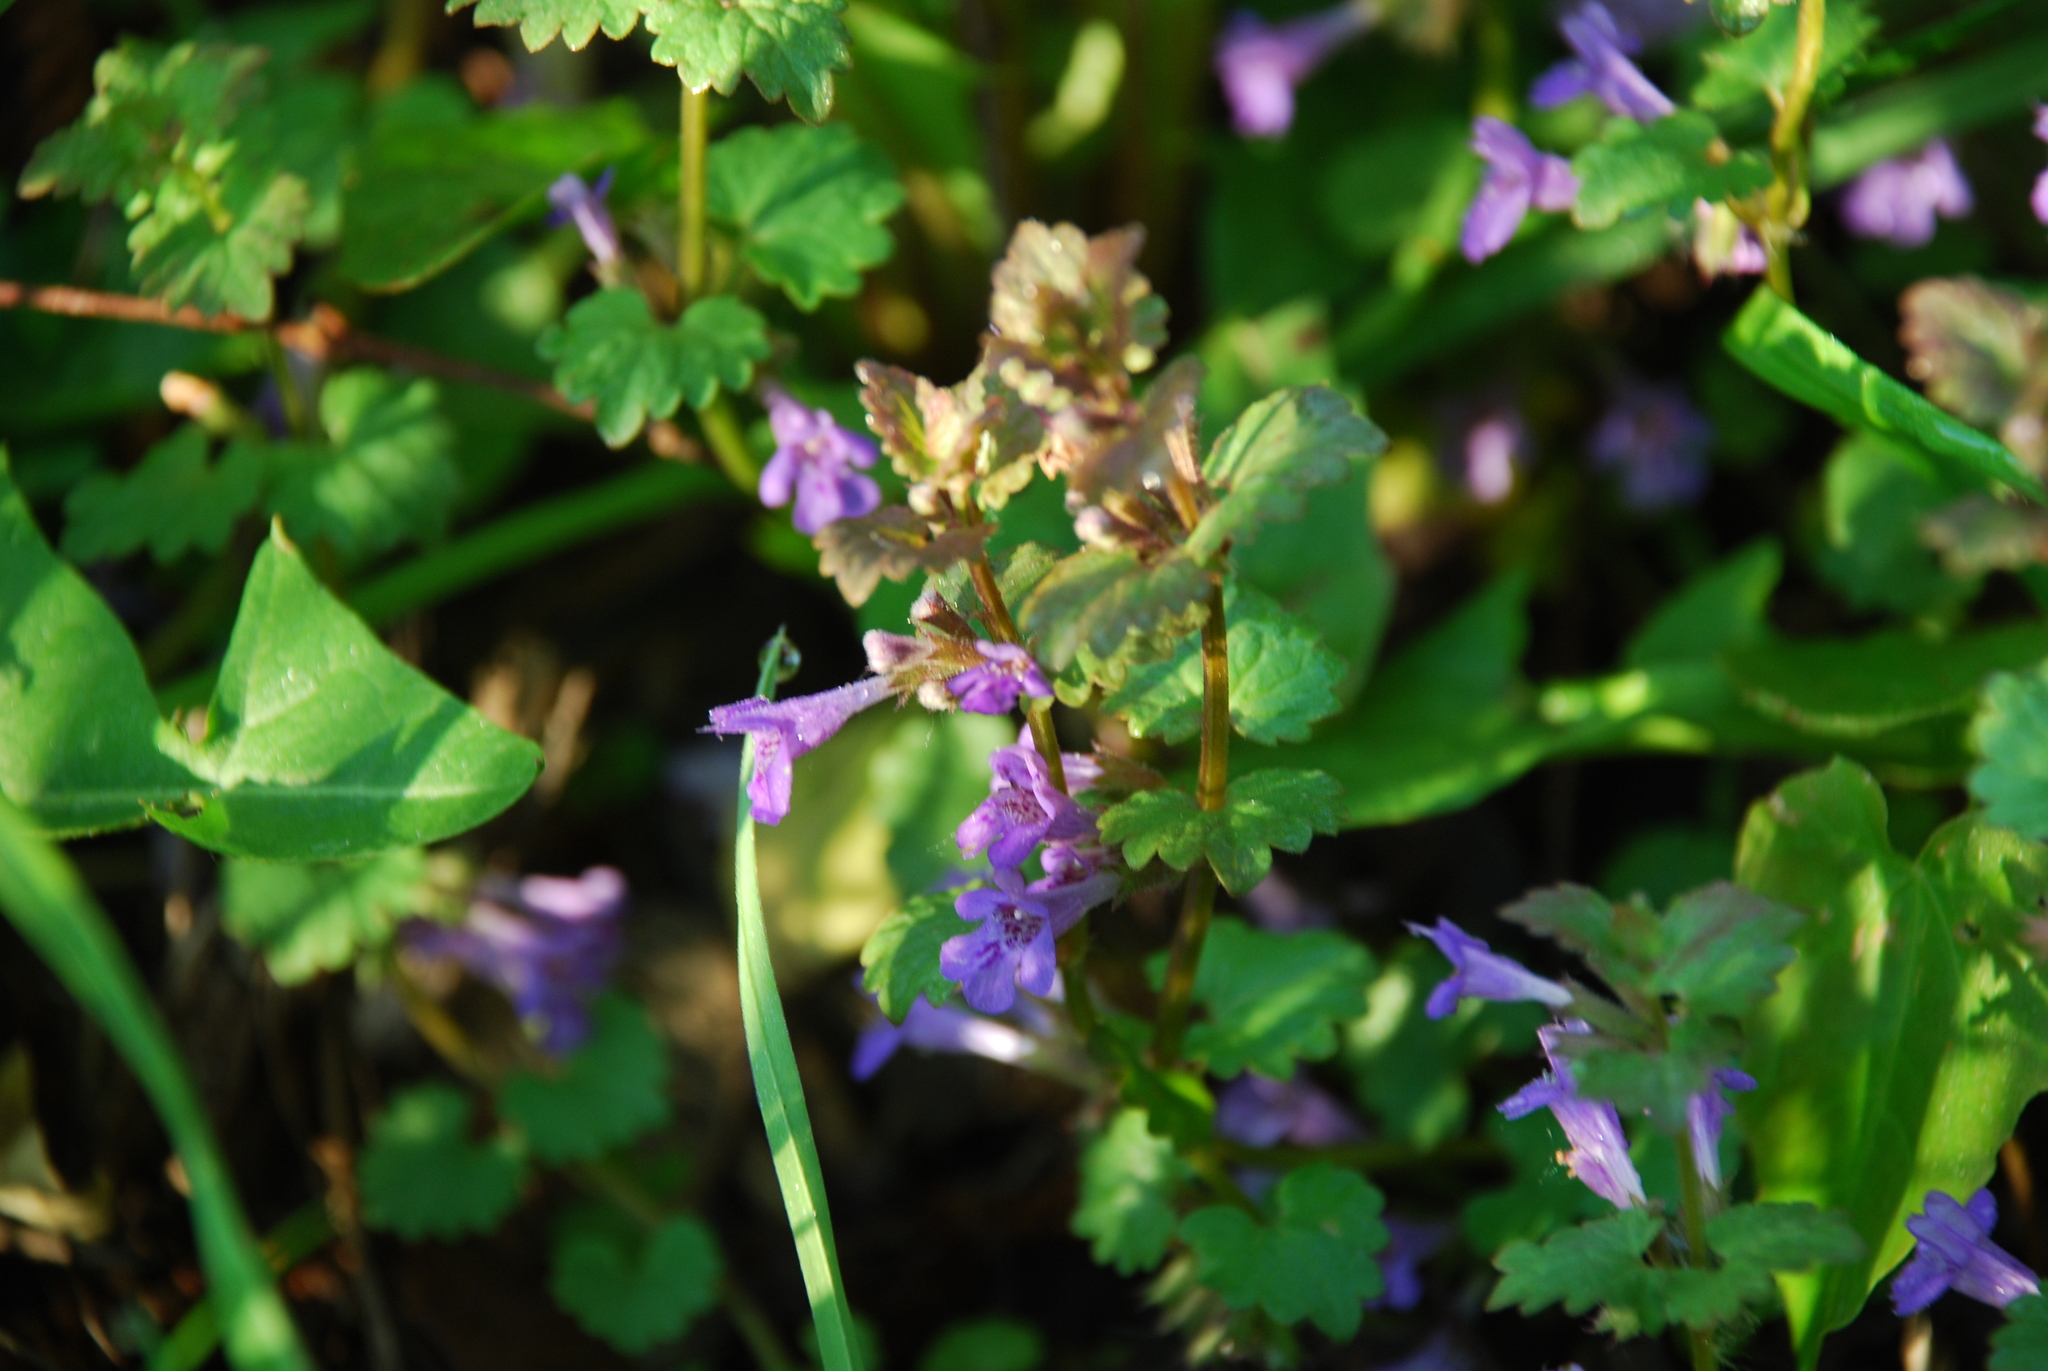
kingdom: Plantae
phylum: Tracheophyta
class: Magnoliopsida
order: Lamiales
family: Lamiaceae
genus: Glechoma
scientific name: Glechoma hederacea
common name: Ground ivy
